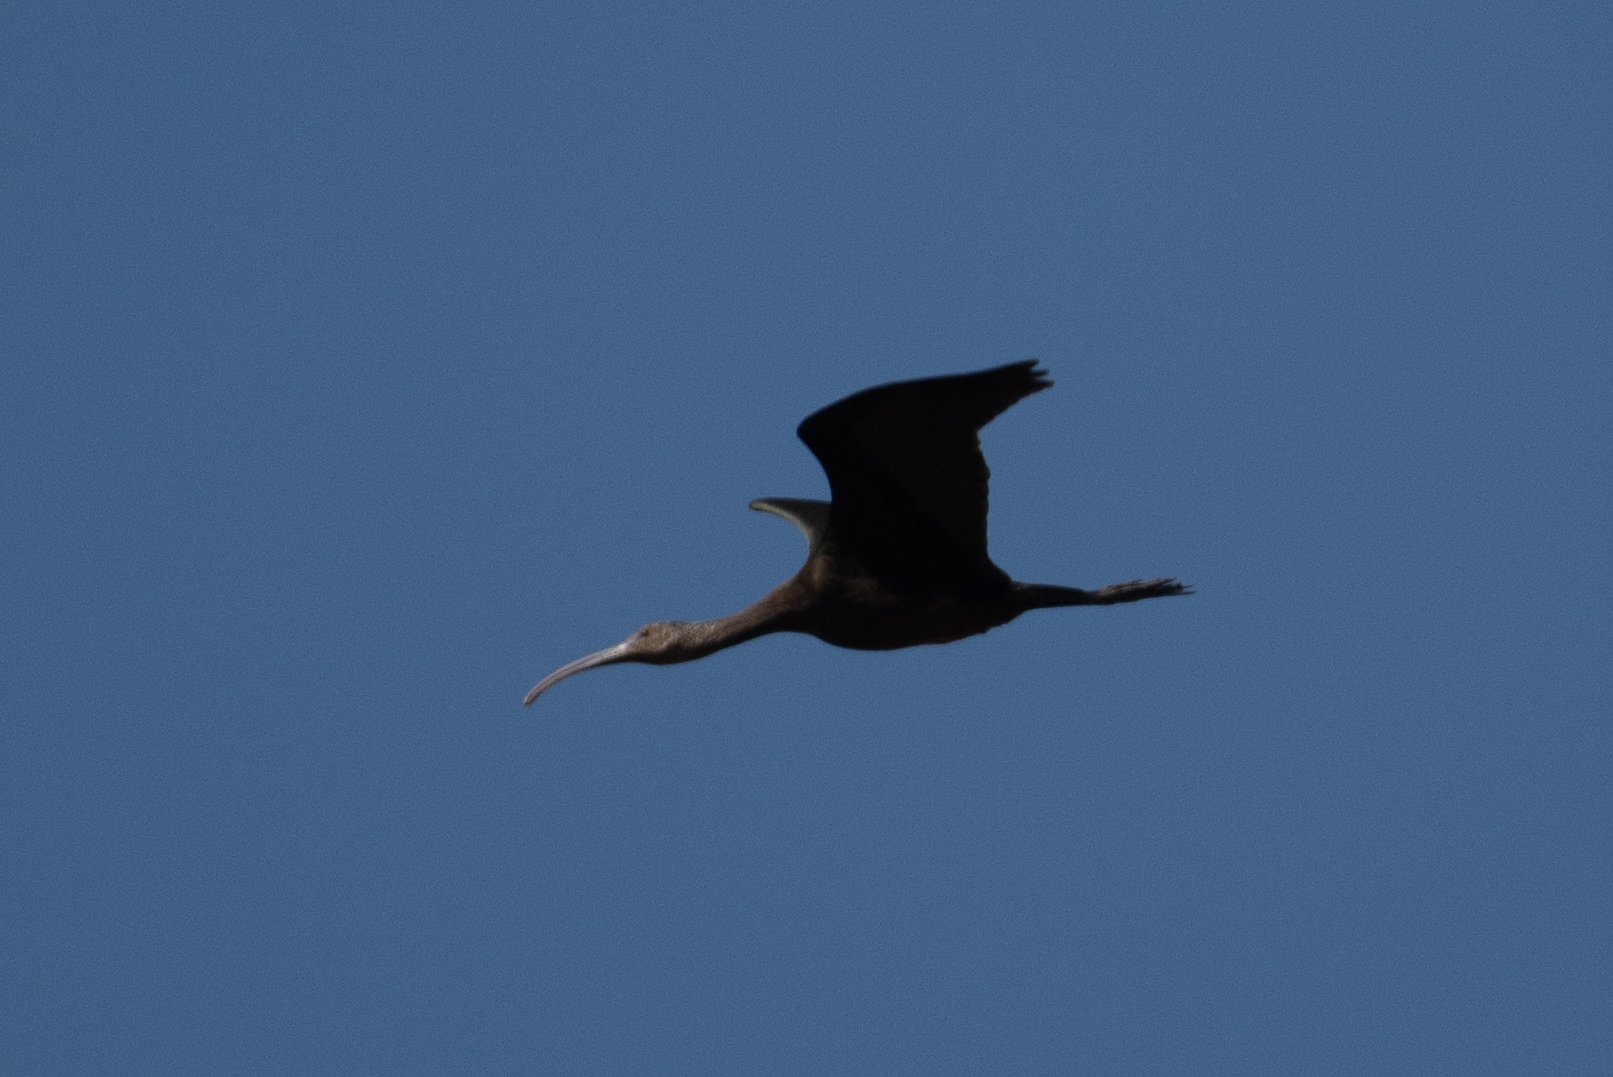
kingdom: Animalia
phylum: Chordata
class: Aves
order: Pelecaniformes
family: Threskiornithidae
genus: Plegadis
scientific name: Plegadis chihi
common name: White-faced ibis
